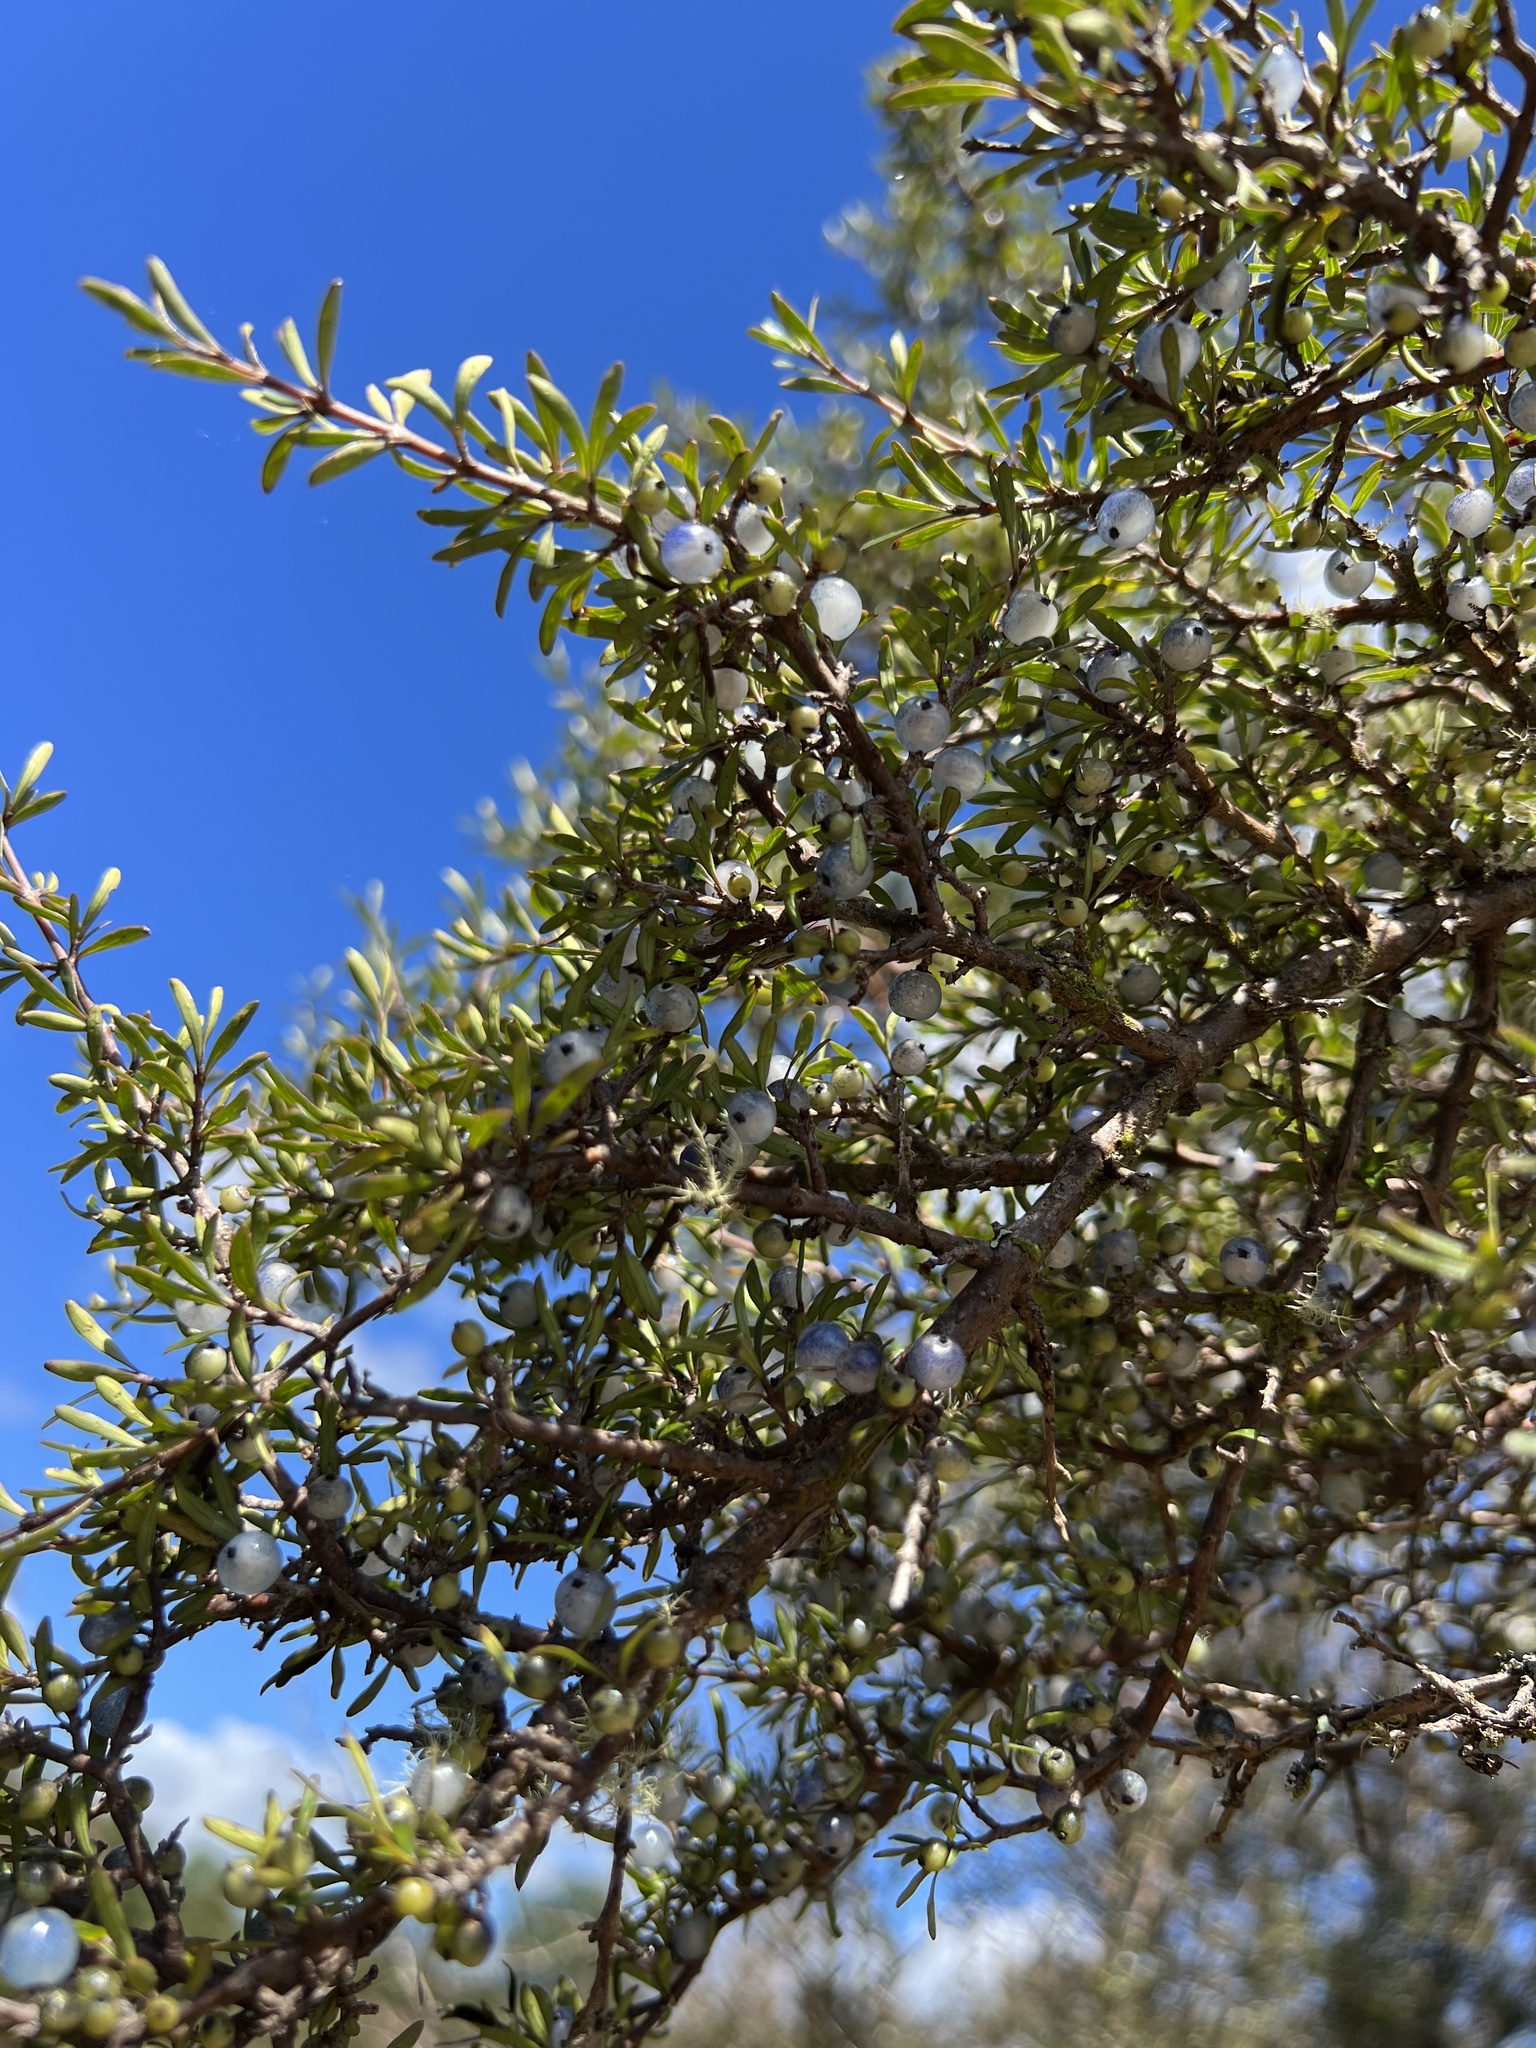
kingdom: Plantae
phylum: Tracheophyta
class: Magnoliopsida
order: Gentianales
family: Rubiaceae
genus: Coprosma
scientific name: Coprosma propinqua
